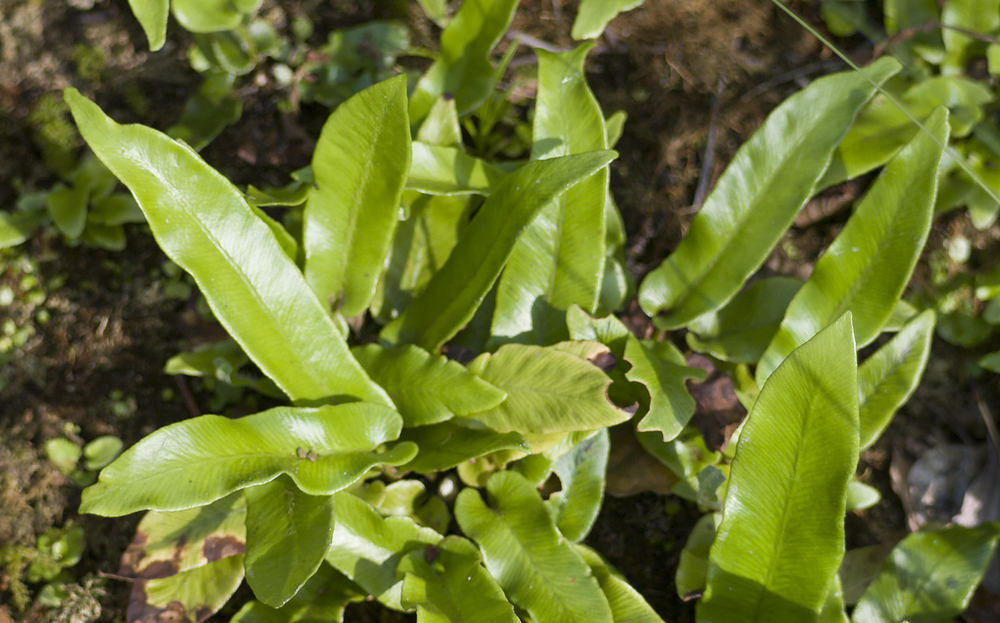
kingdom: Plantae
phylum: Tracheophyta
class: Polypodiopsida
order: Polypodiales
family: Aspleniaceae
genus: Asplenium
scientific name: Asplenium scolopendrium
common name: Hart's-tongue fern
